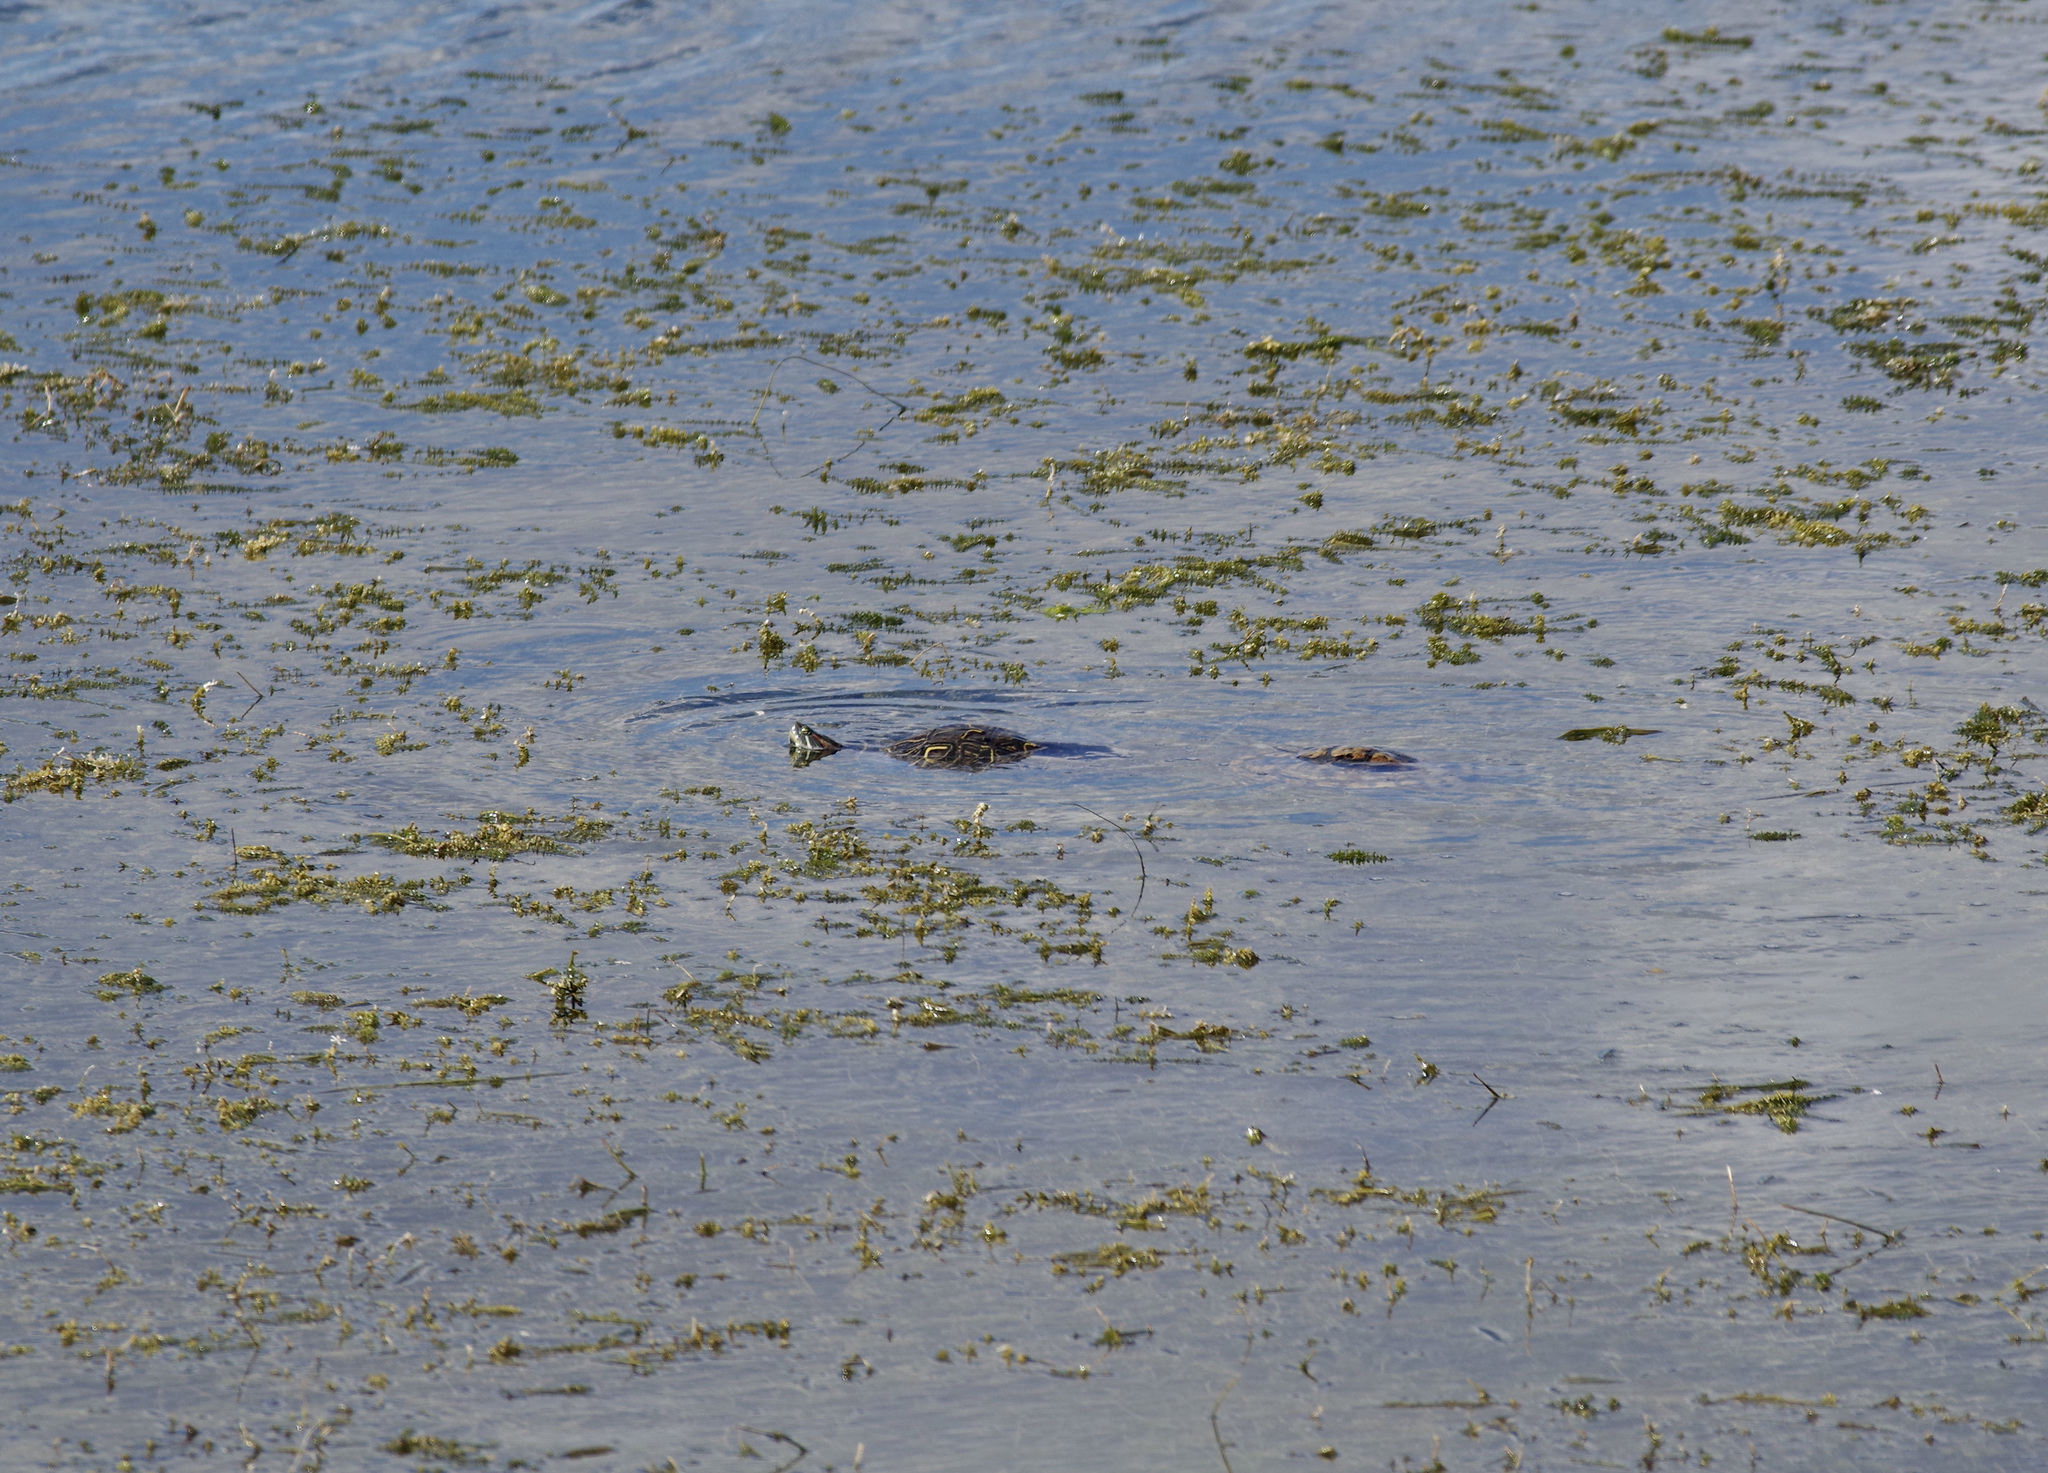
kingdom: Animalia
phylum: Chordata
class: Testudines
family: Emydidae
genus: Trachemys
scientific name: Trachemys scripta
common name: Slider
